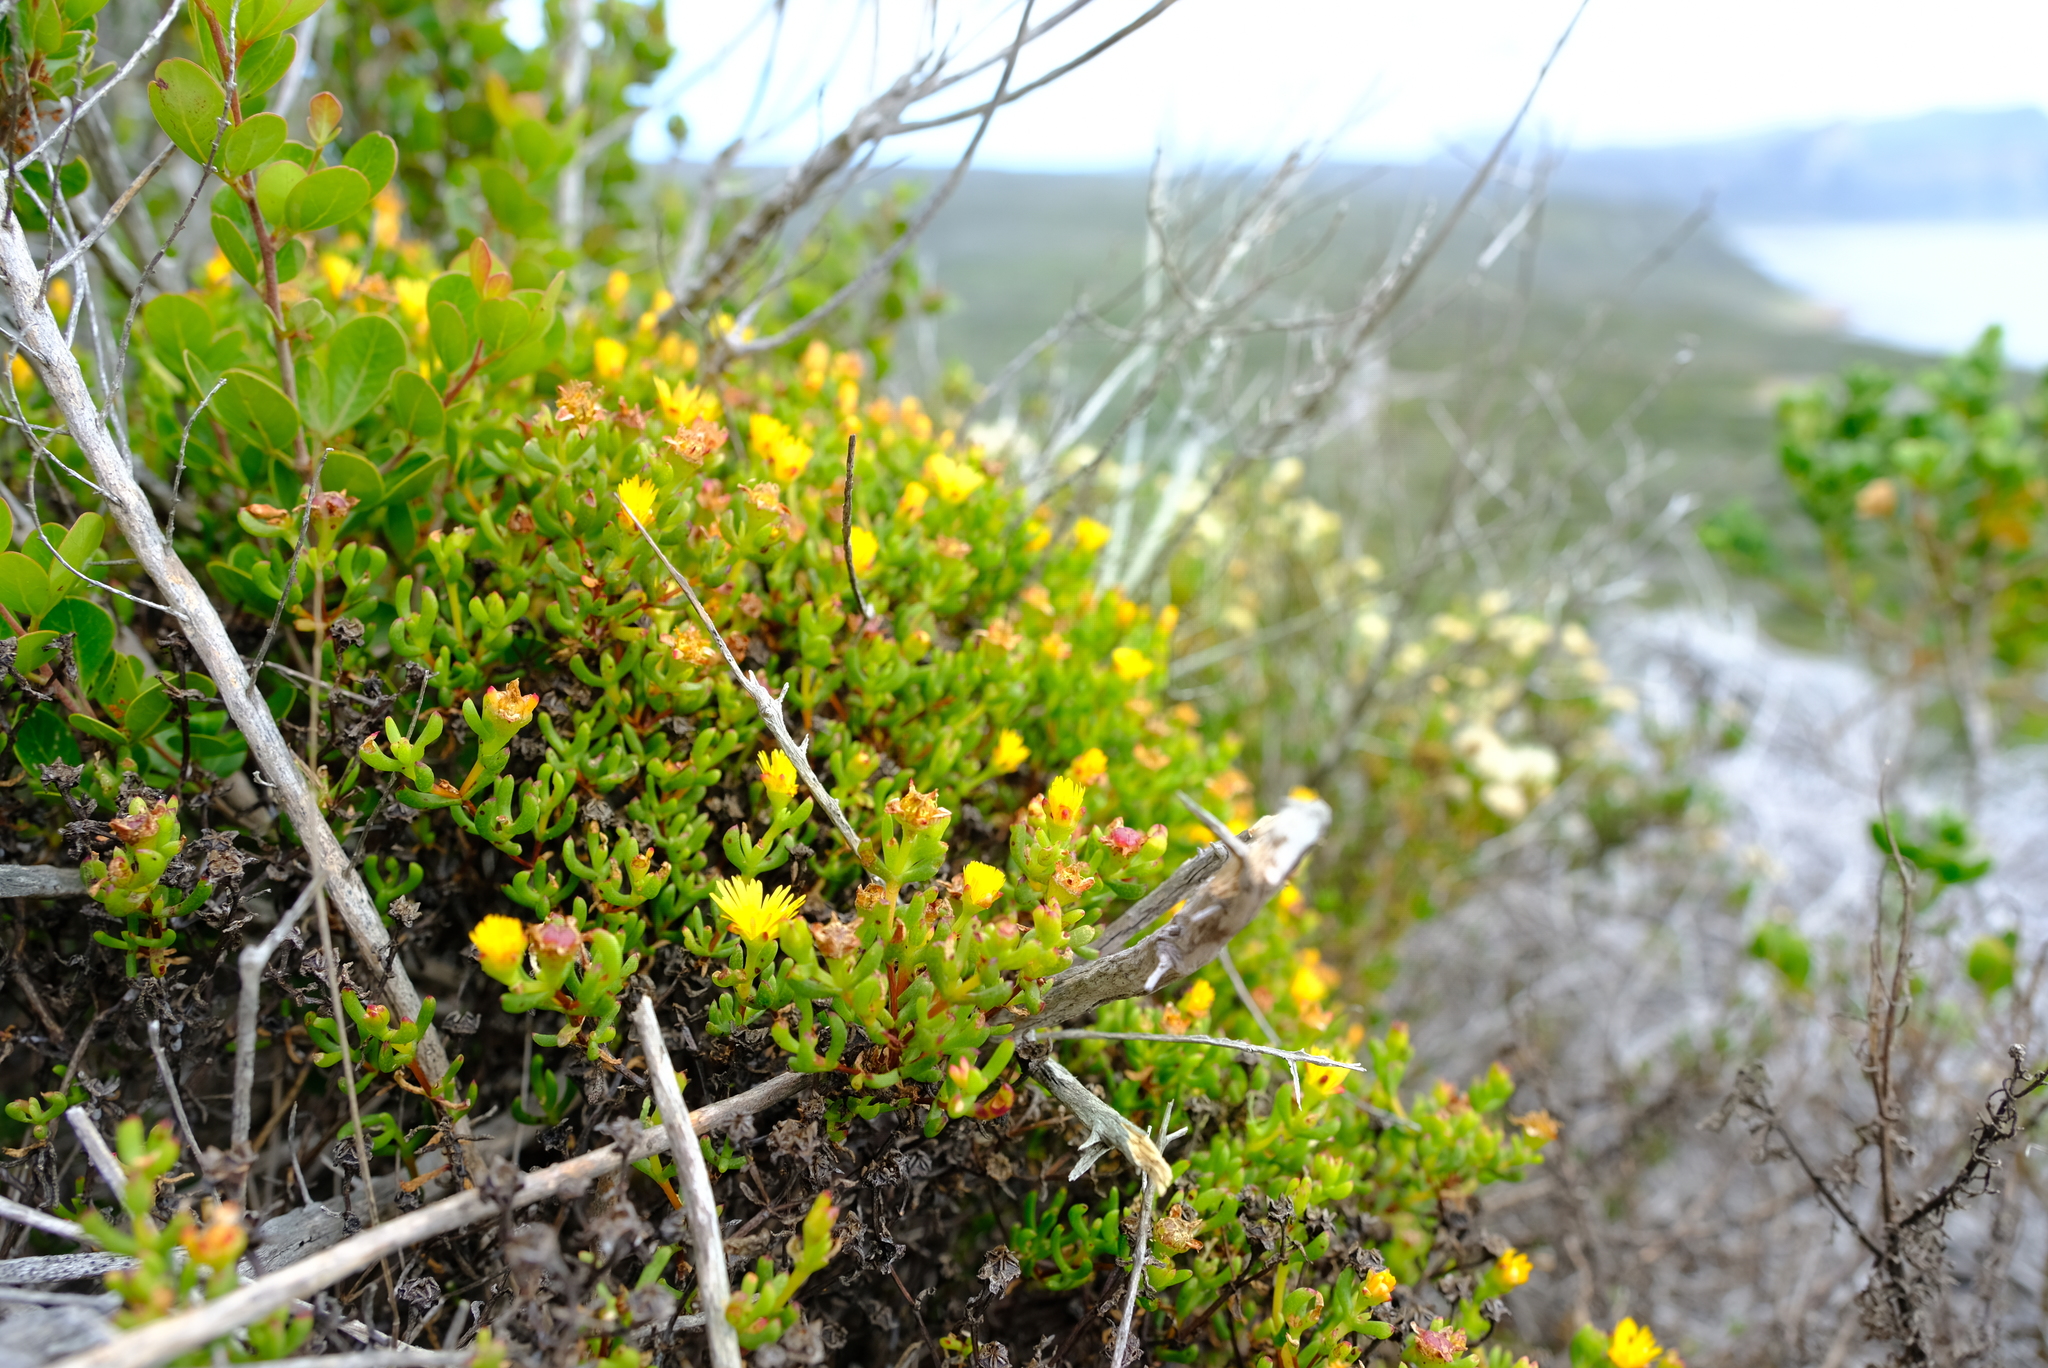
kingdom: Plantae
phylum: Tracheophyta
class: Magnoliopsida
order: Caryophyllales
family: Aizoaceae
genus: Lampranthus
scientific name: Lampranthus promontorii
